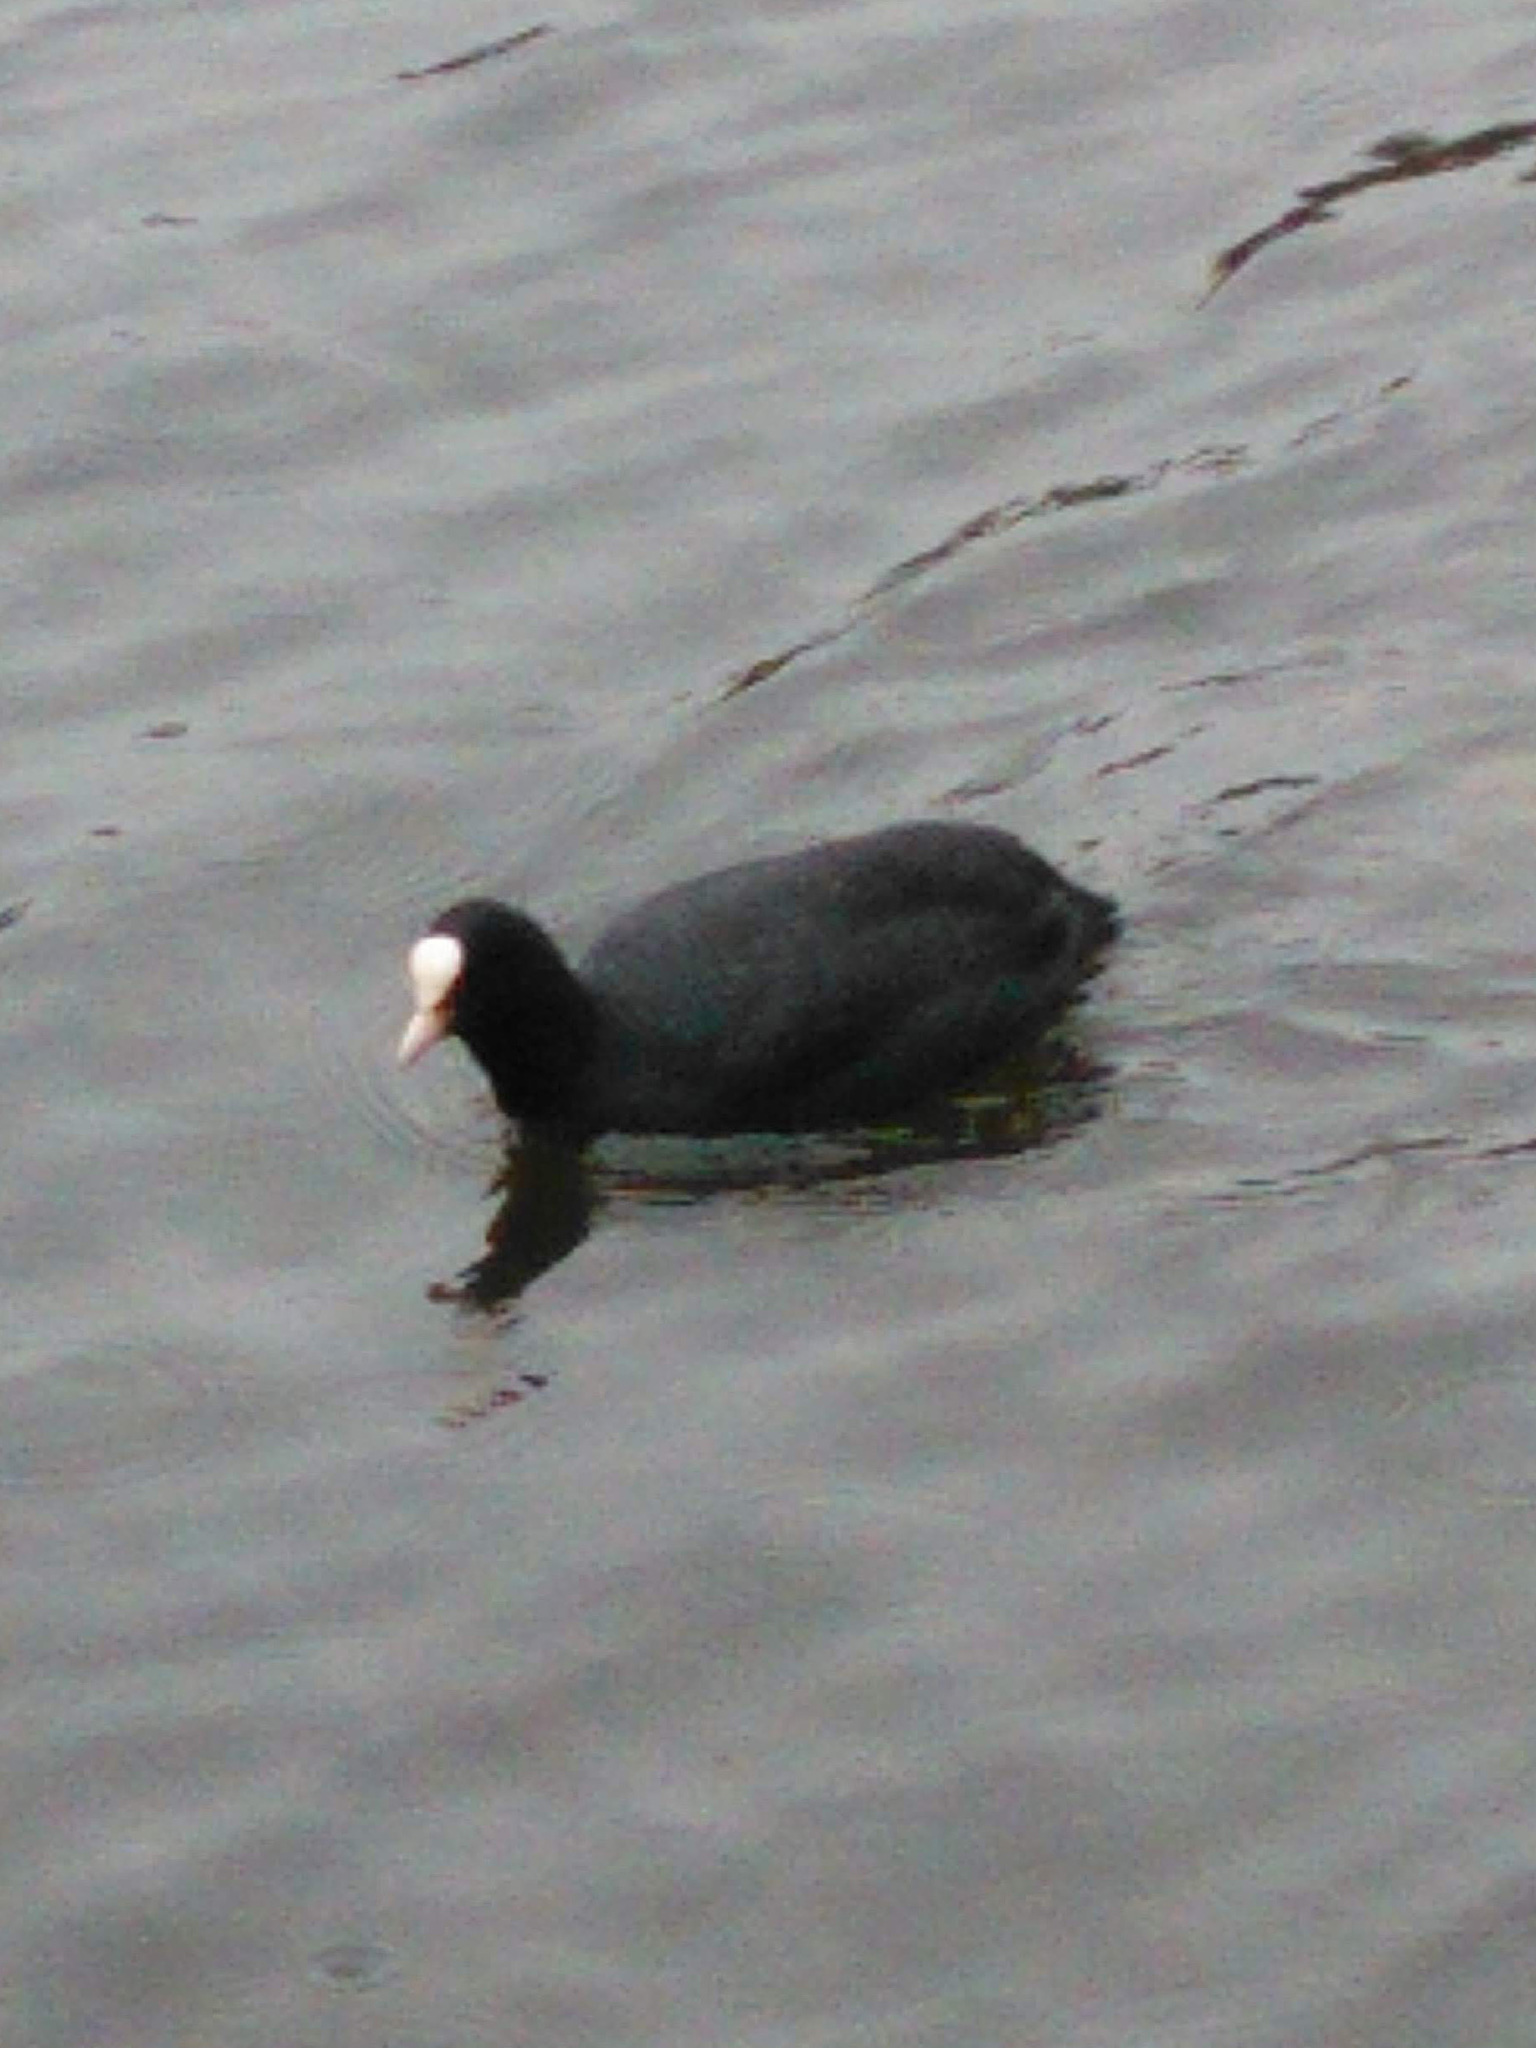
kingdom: Animalia
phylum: Chordata
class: Aves
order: Gruiformes
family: Rallidae
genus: Fulica
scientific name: Fulica atra
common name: Eurasian coot
